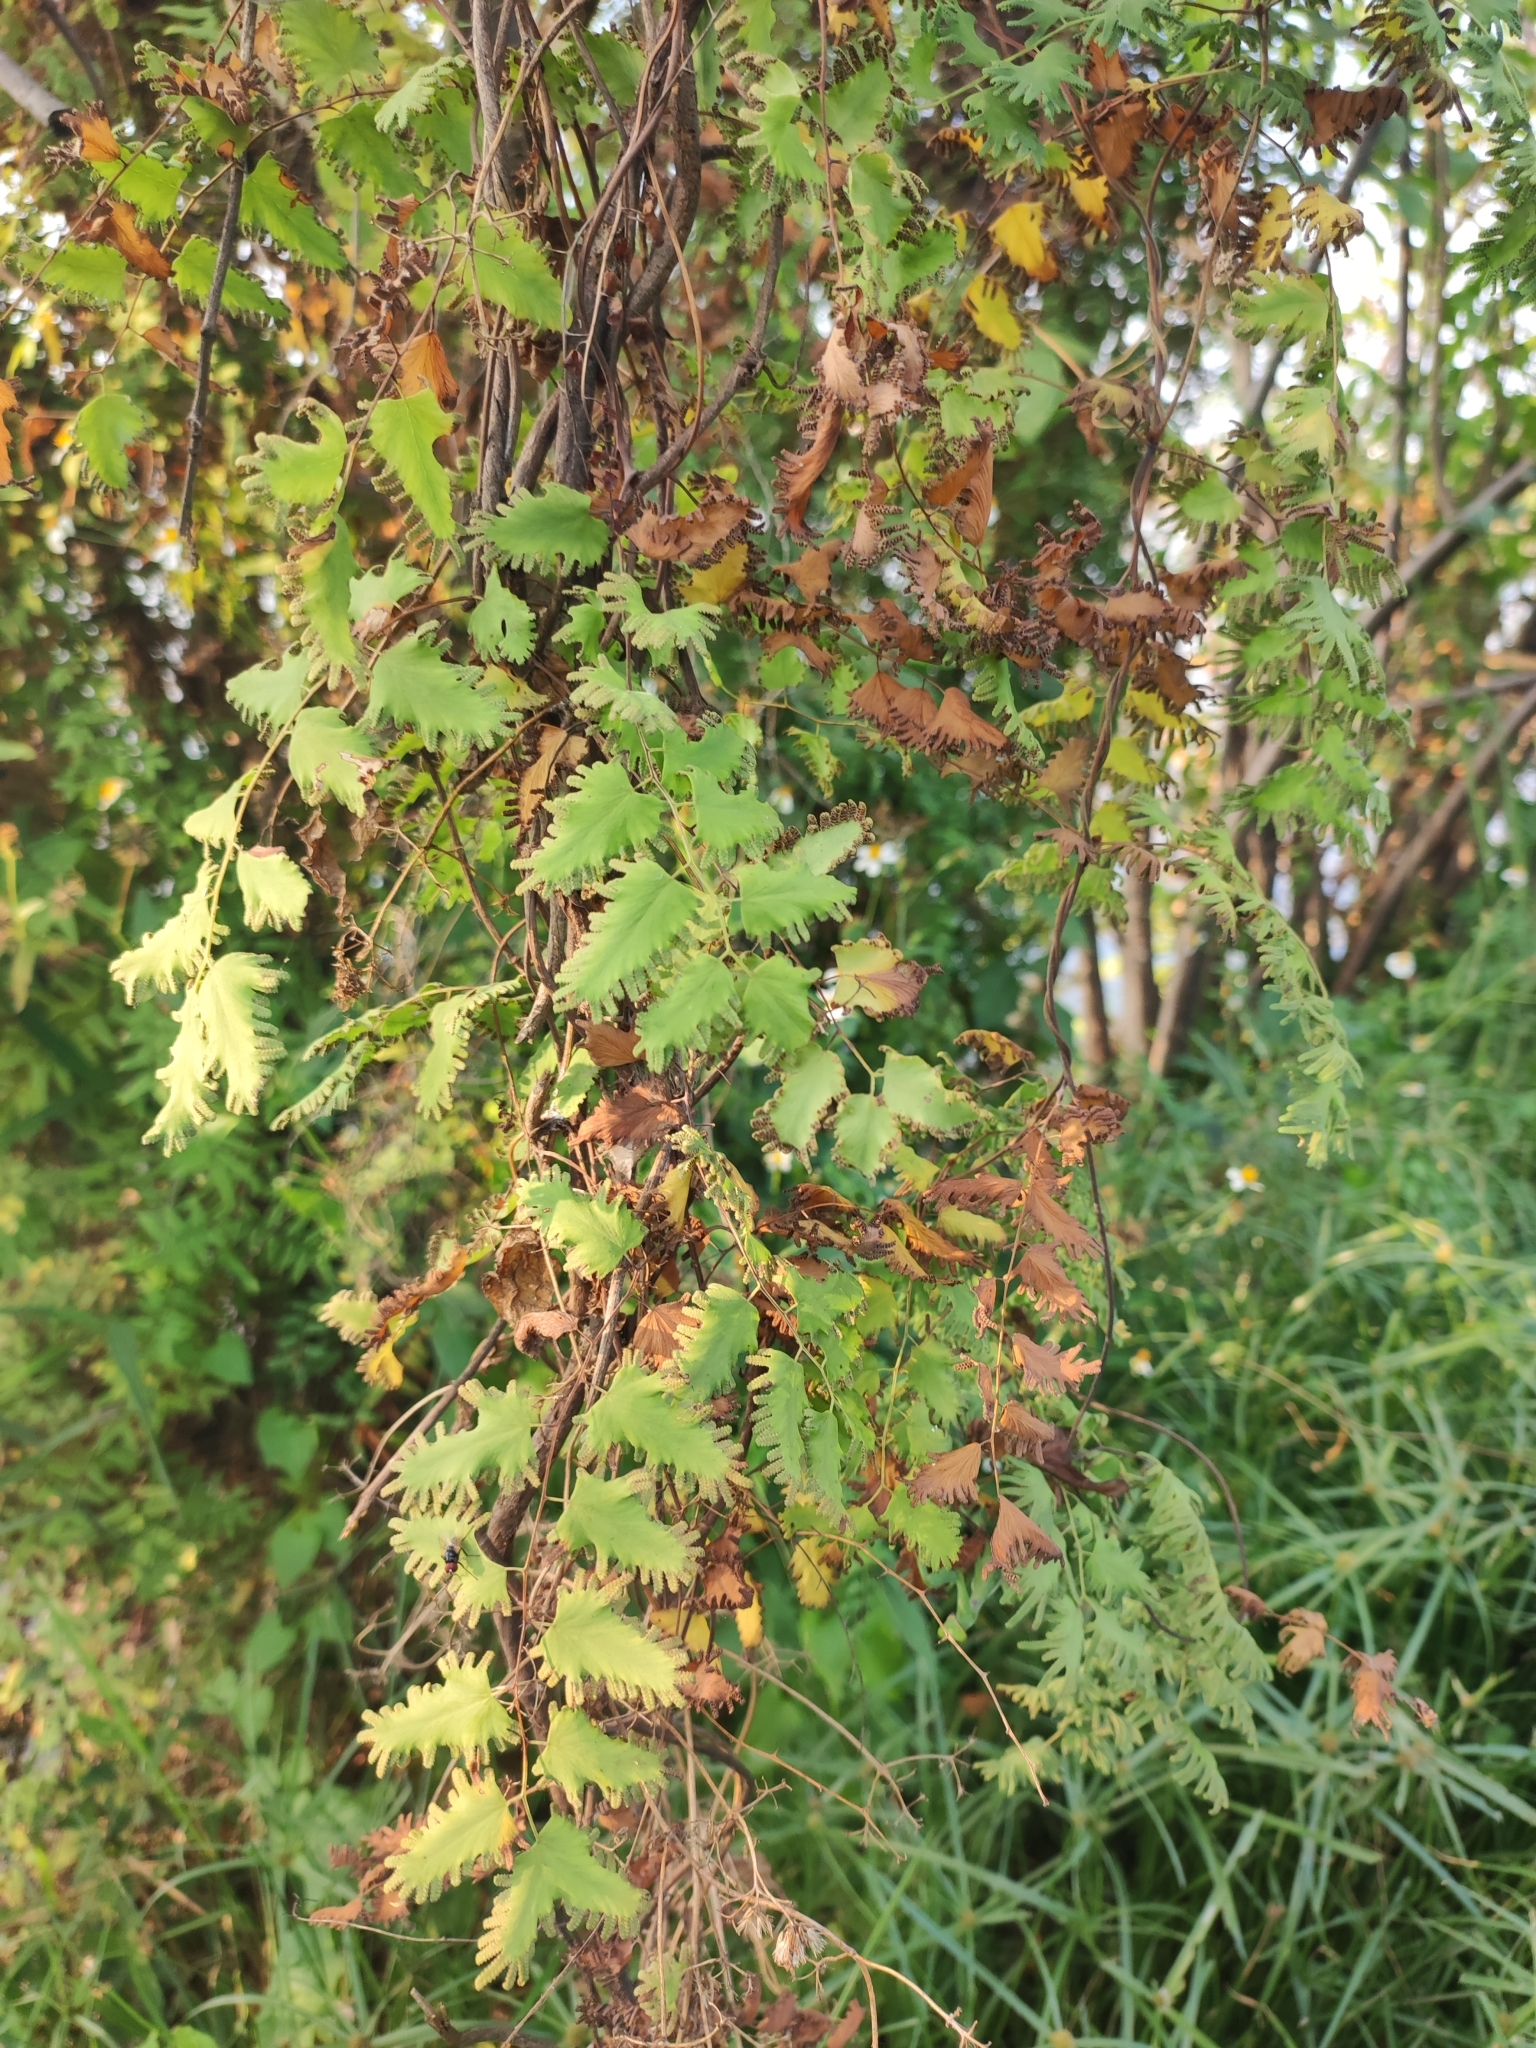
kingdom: Plantae
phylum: Tracheophyta
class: Polypodiopsida
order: Schizaeales
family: Lygodiaceae
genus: Lygodium
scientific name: Lygodium microphyllum
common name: Small-leaf climbing fern
